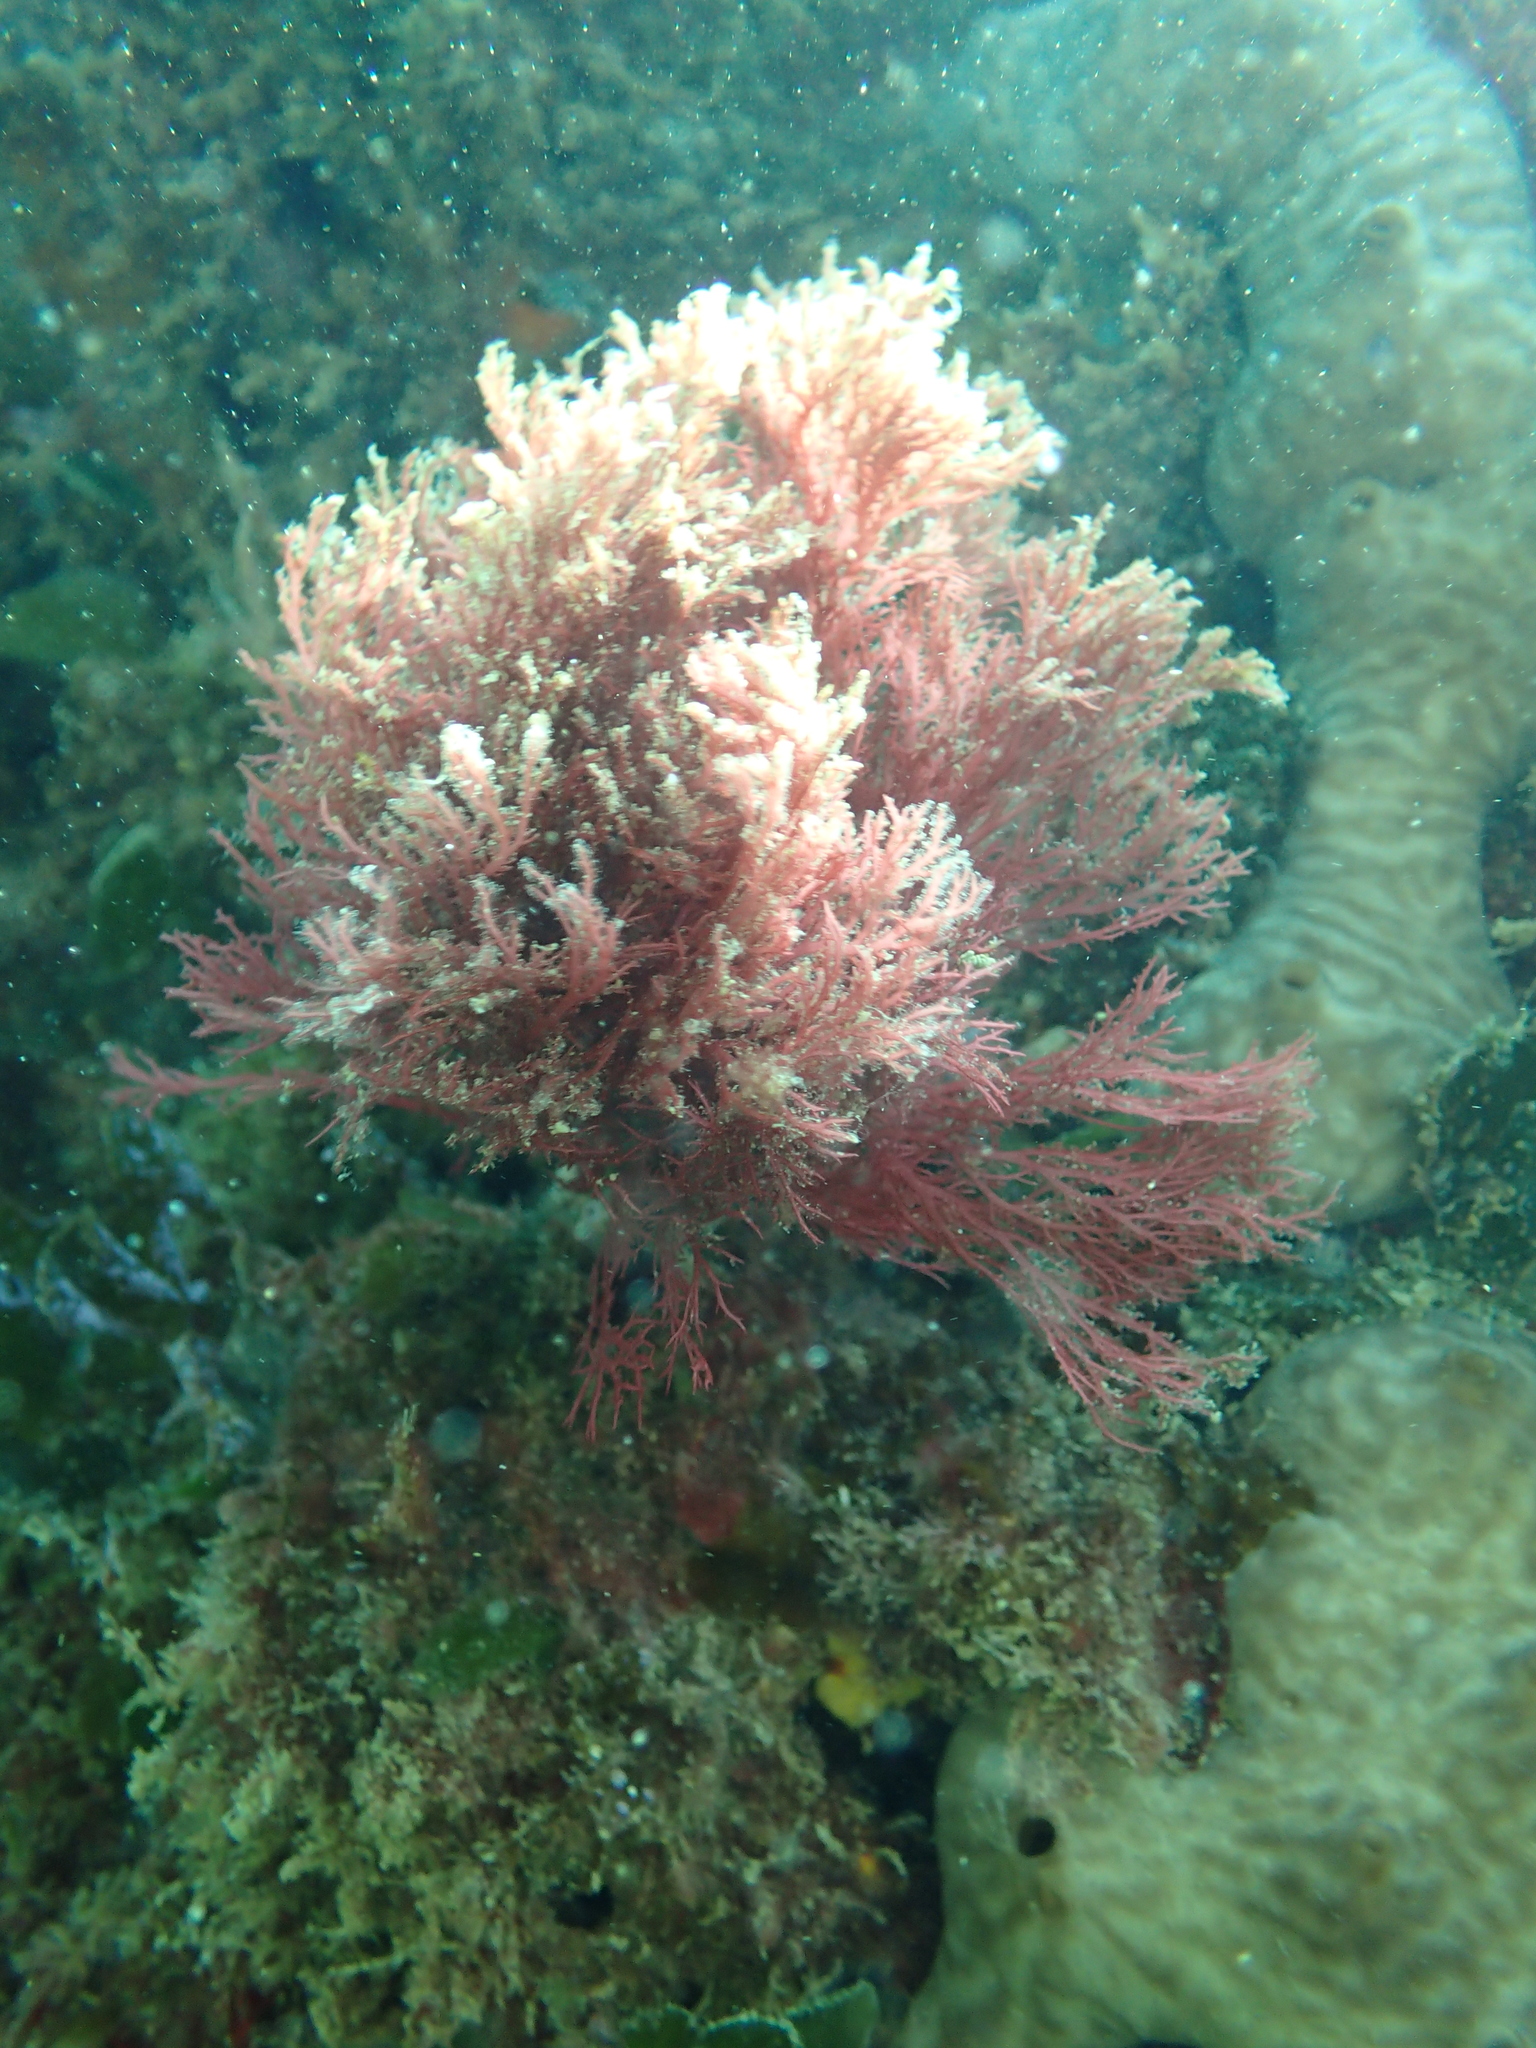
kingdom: Animalia
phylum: Porifera
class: Demospongiae
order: Chondrosiida
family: Chondrosiidae
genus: Chondrosia
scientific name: Chondrosia reniformis
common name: Chicken liver sponge
